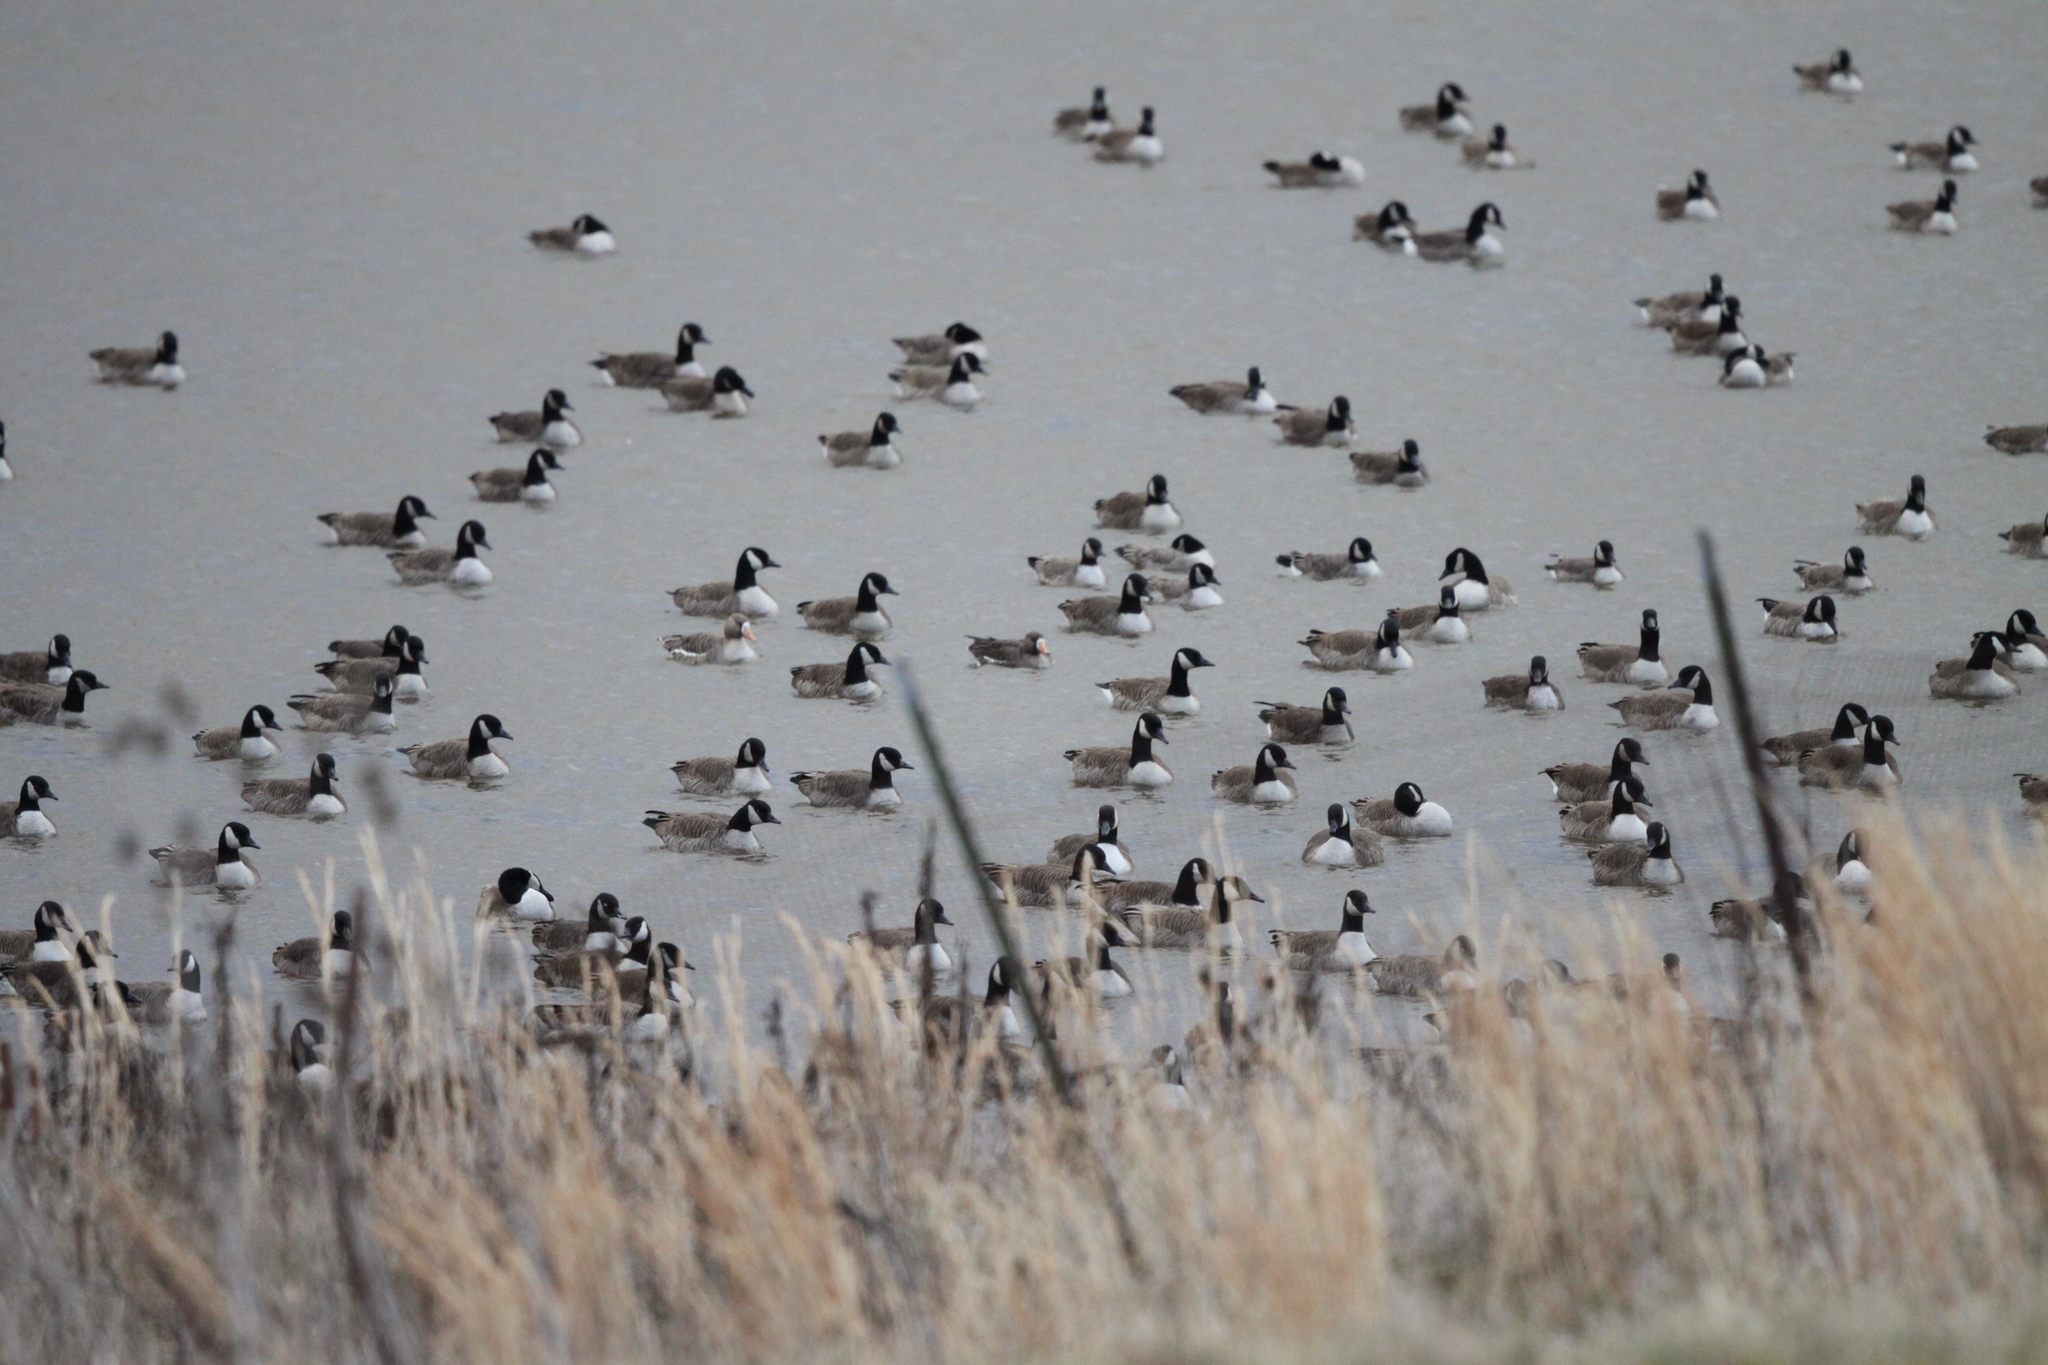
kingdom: Animalia
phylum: Chordata
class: Aves
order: Anseriformes
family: Anatidae
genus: Branta
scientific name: Branta canadensis
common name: Canada goose
